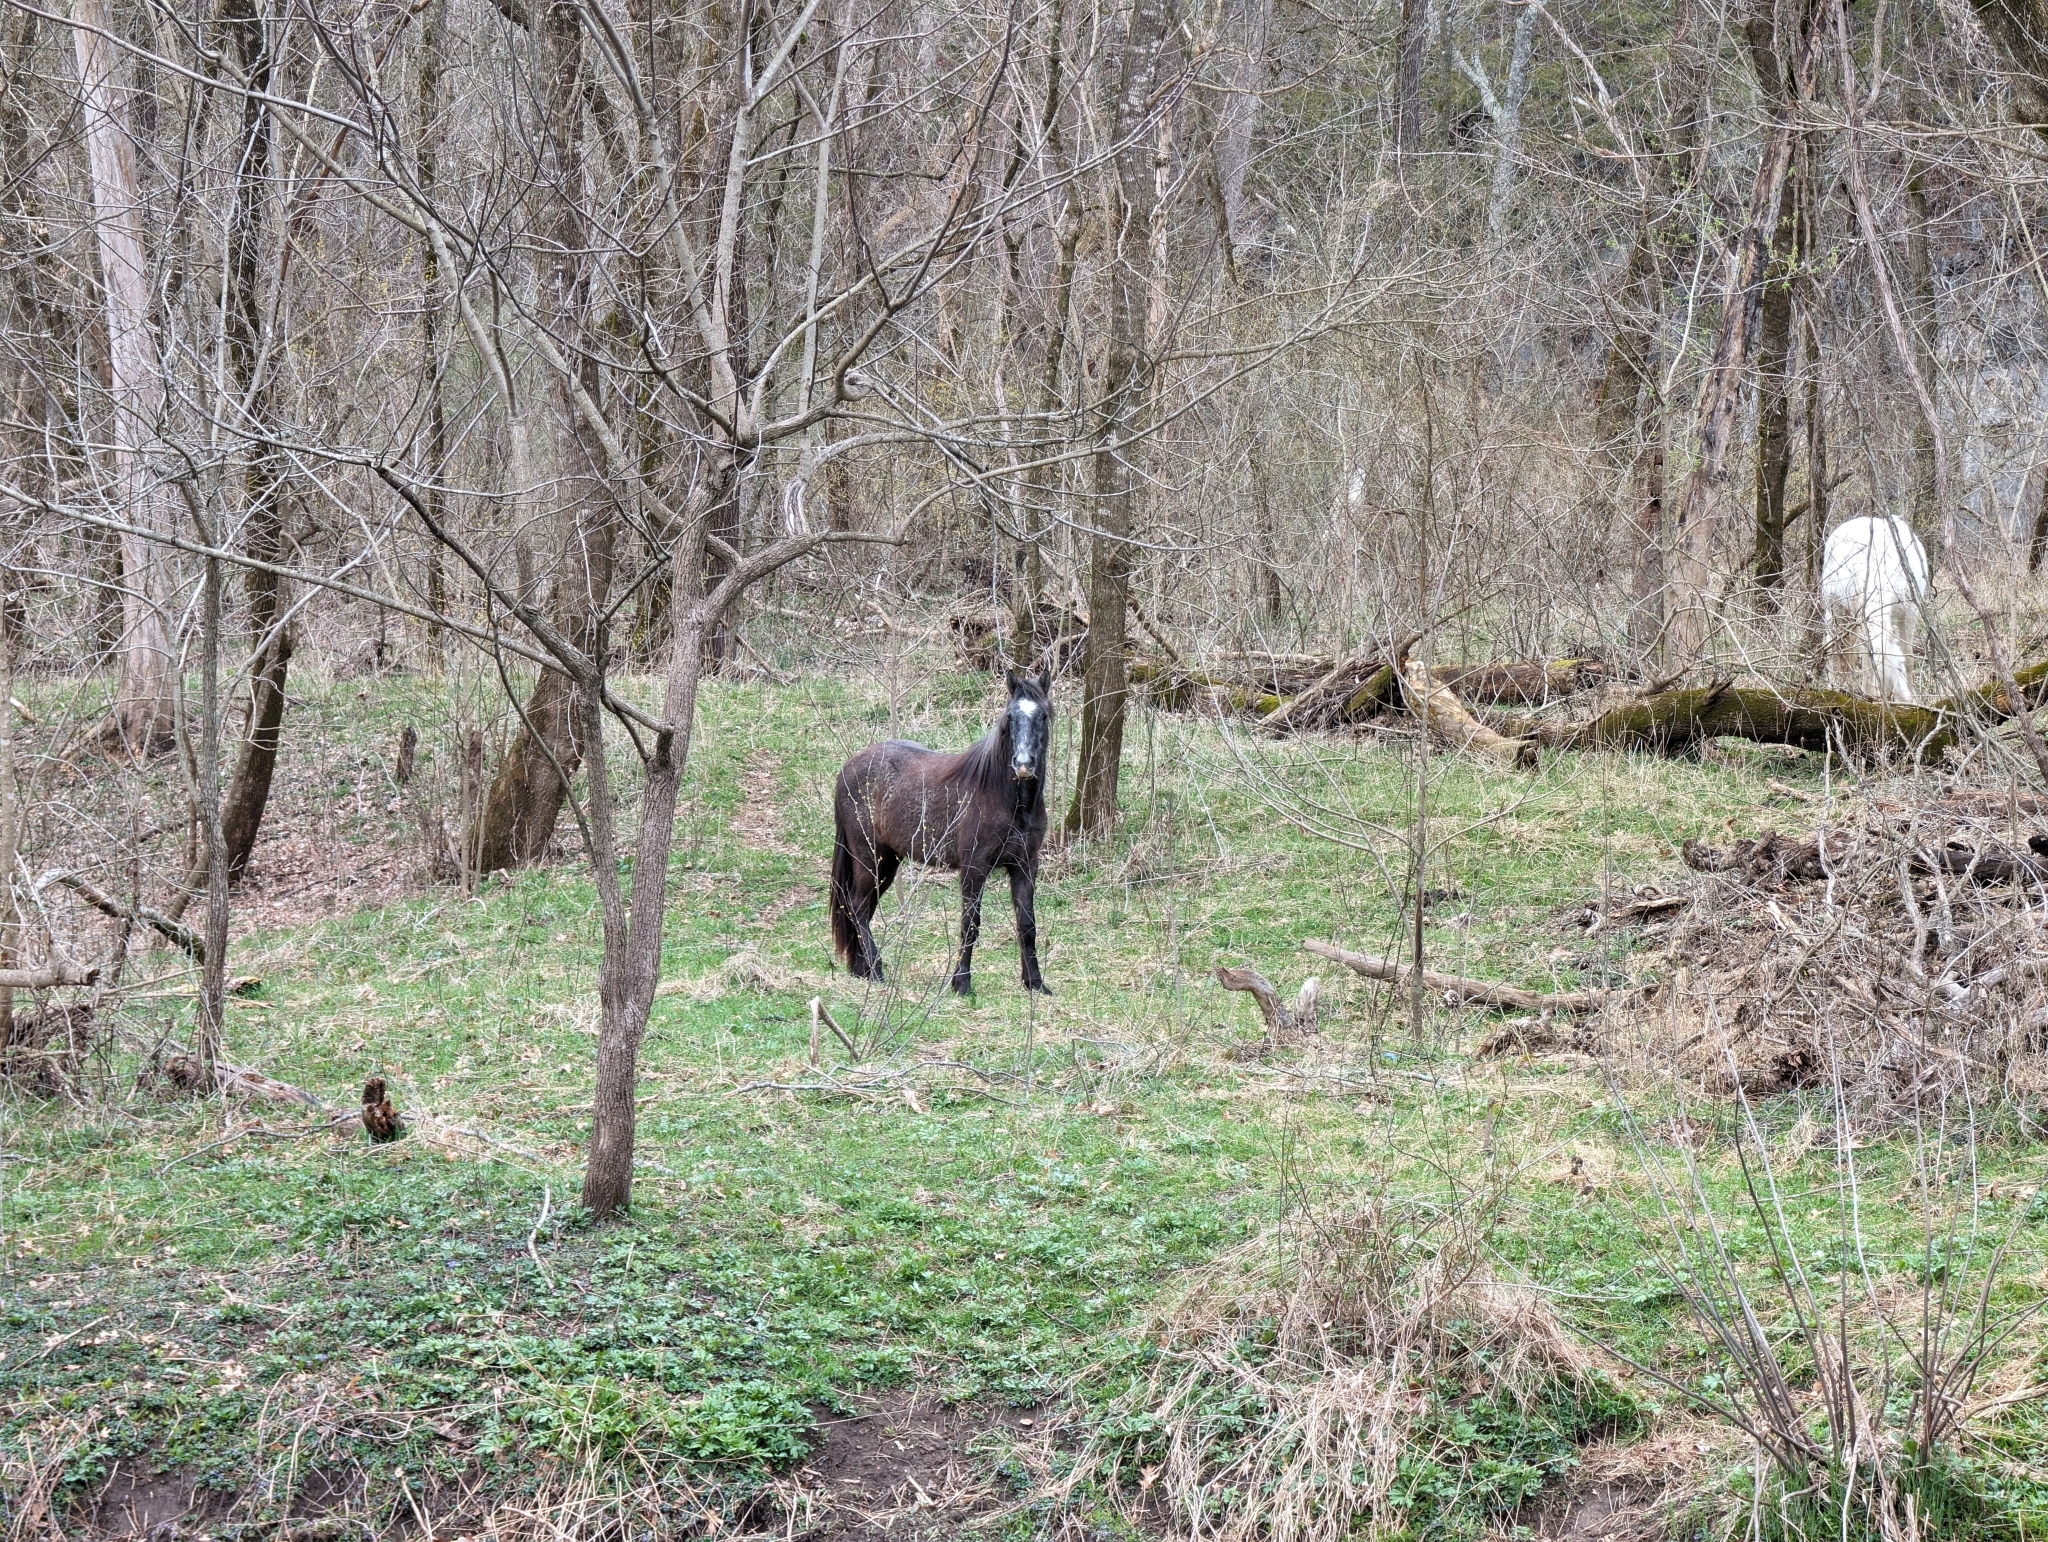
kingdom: Animalia
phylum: Chordata
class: Mammalia
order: Perissodactyla
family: Equidae
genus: Equus
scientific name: Equus caballus
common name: Horse
